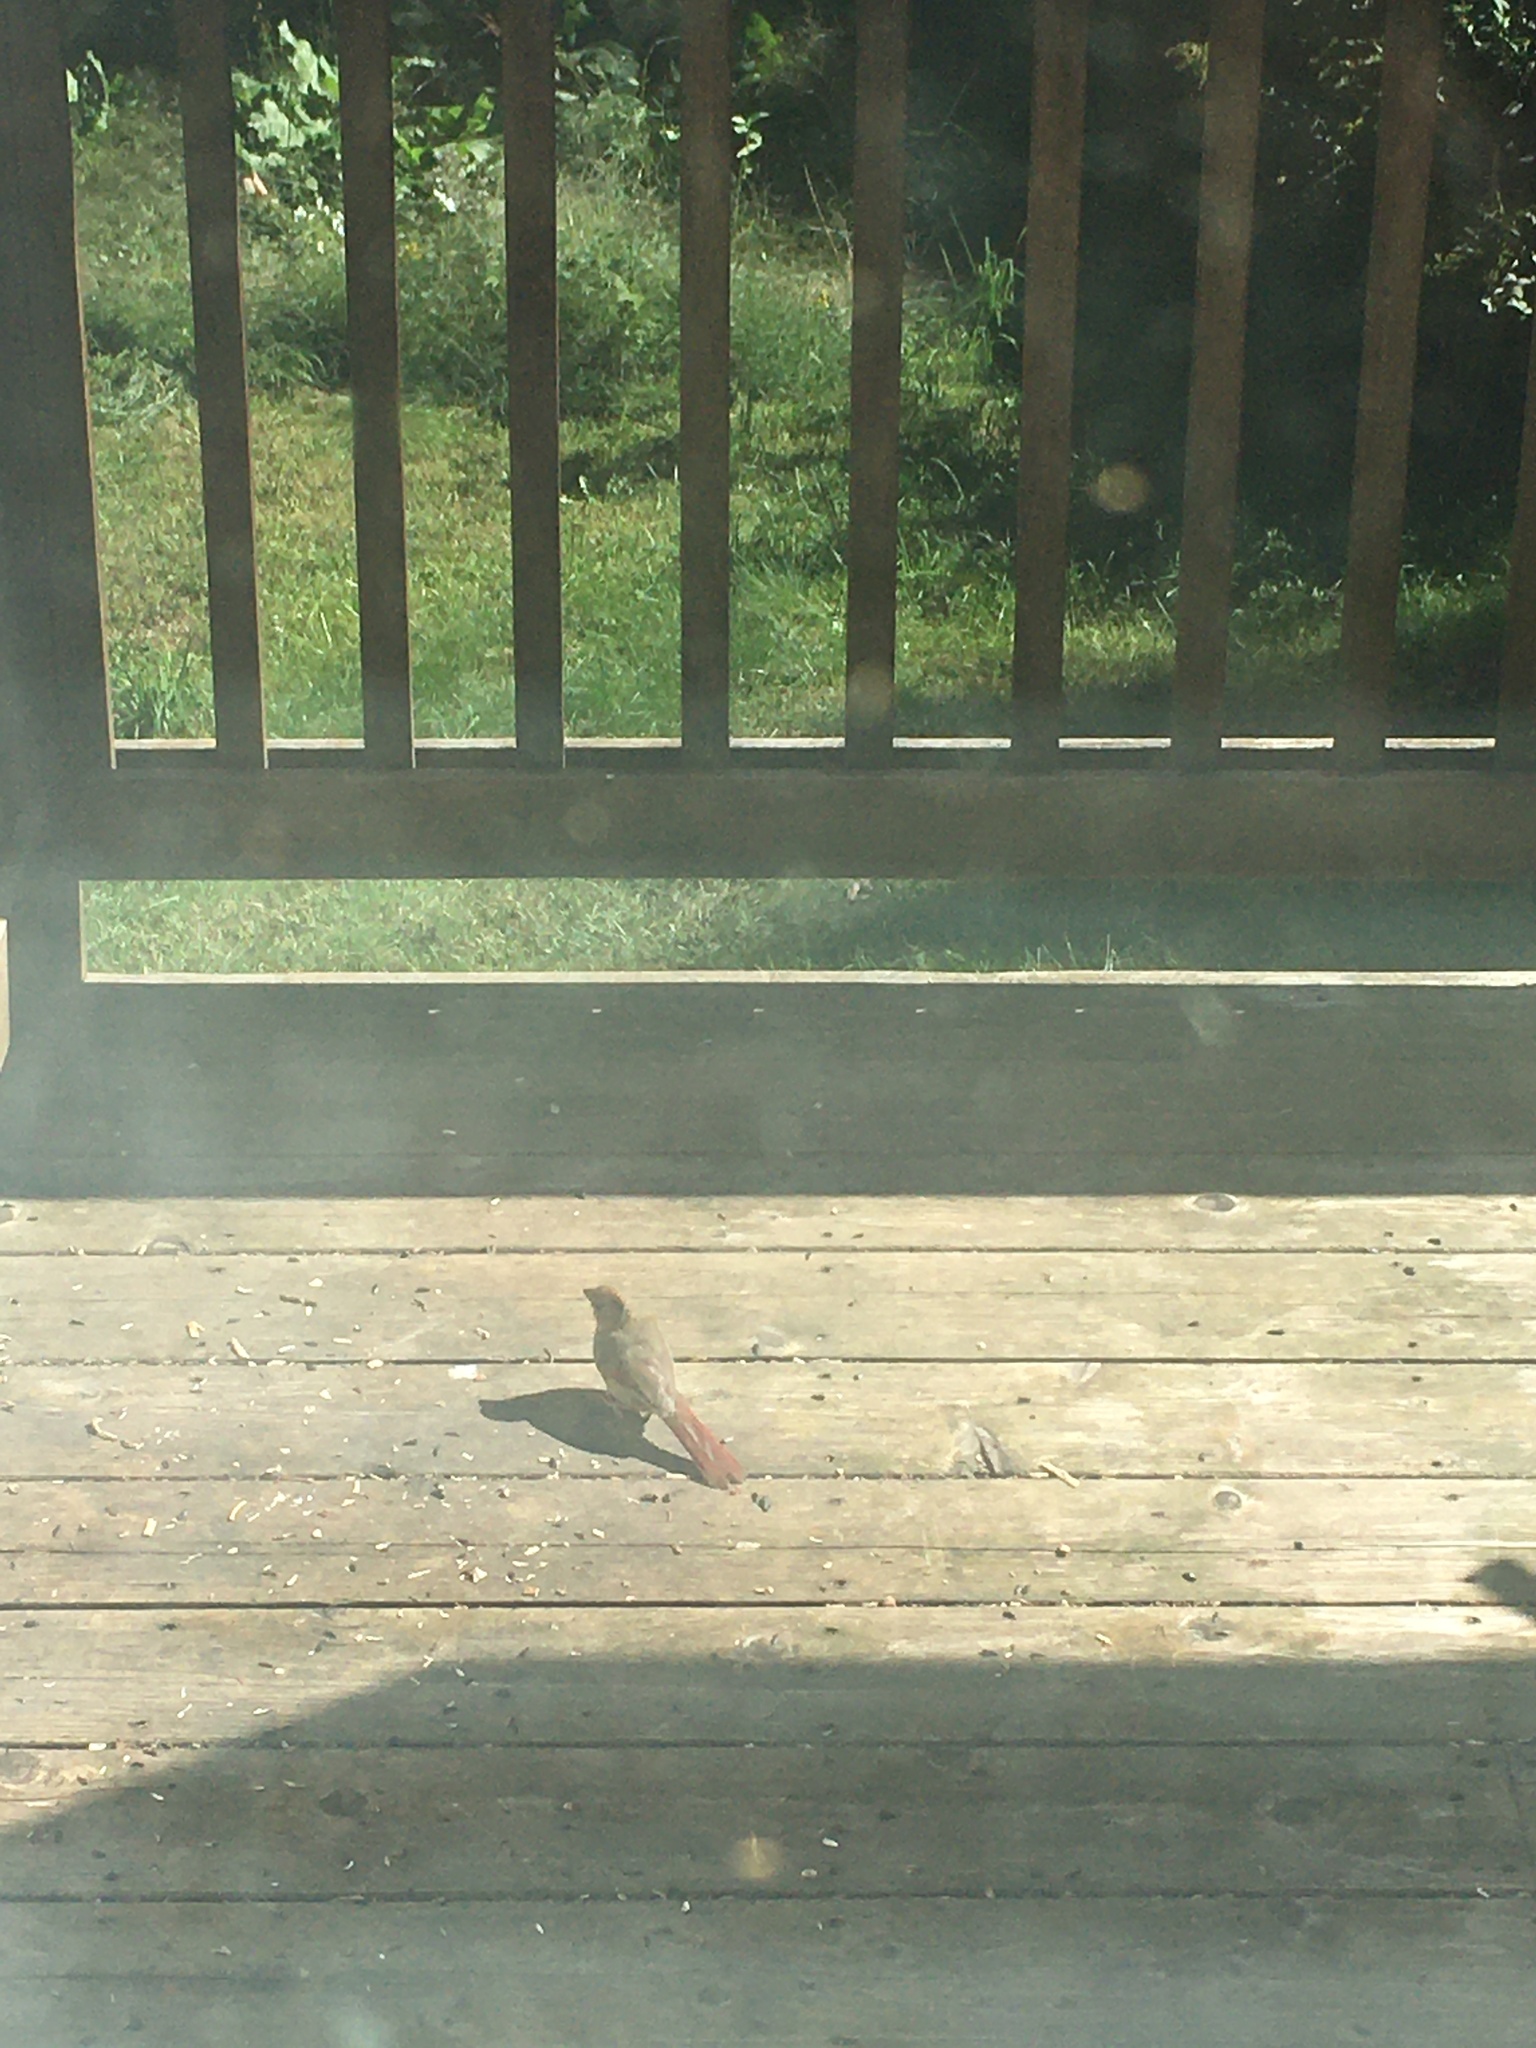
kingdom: Animalia
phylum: Chordata
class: Aves
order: Passeriformes
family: Cardinalidae
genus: Cardinalis
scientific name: Cardinalis cardinalis
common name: Northern cardinal
